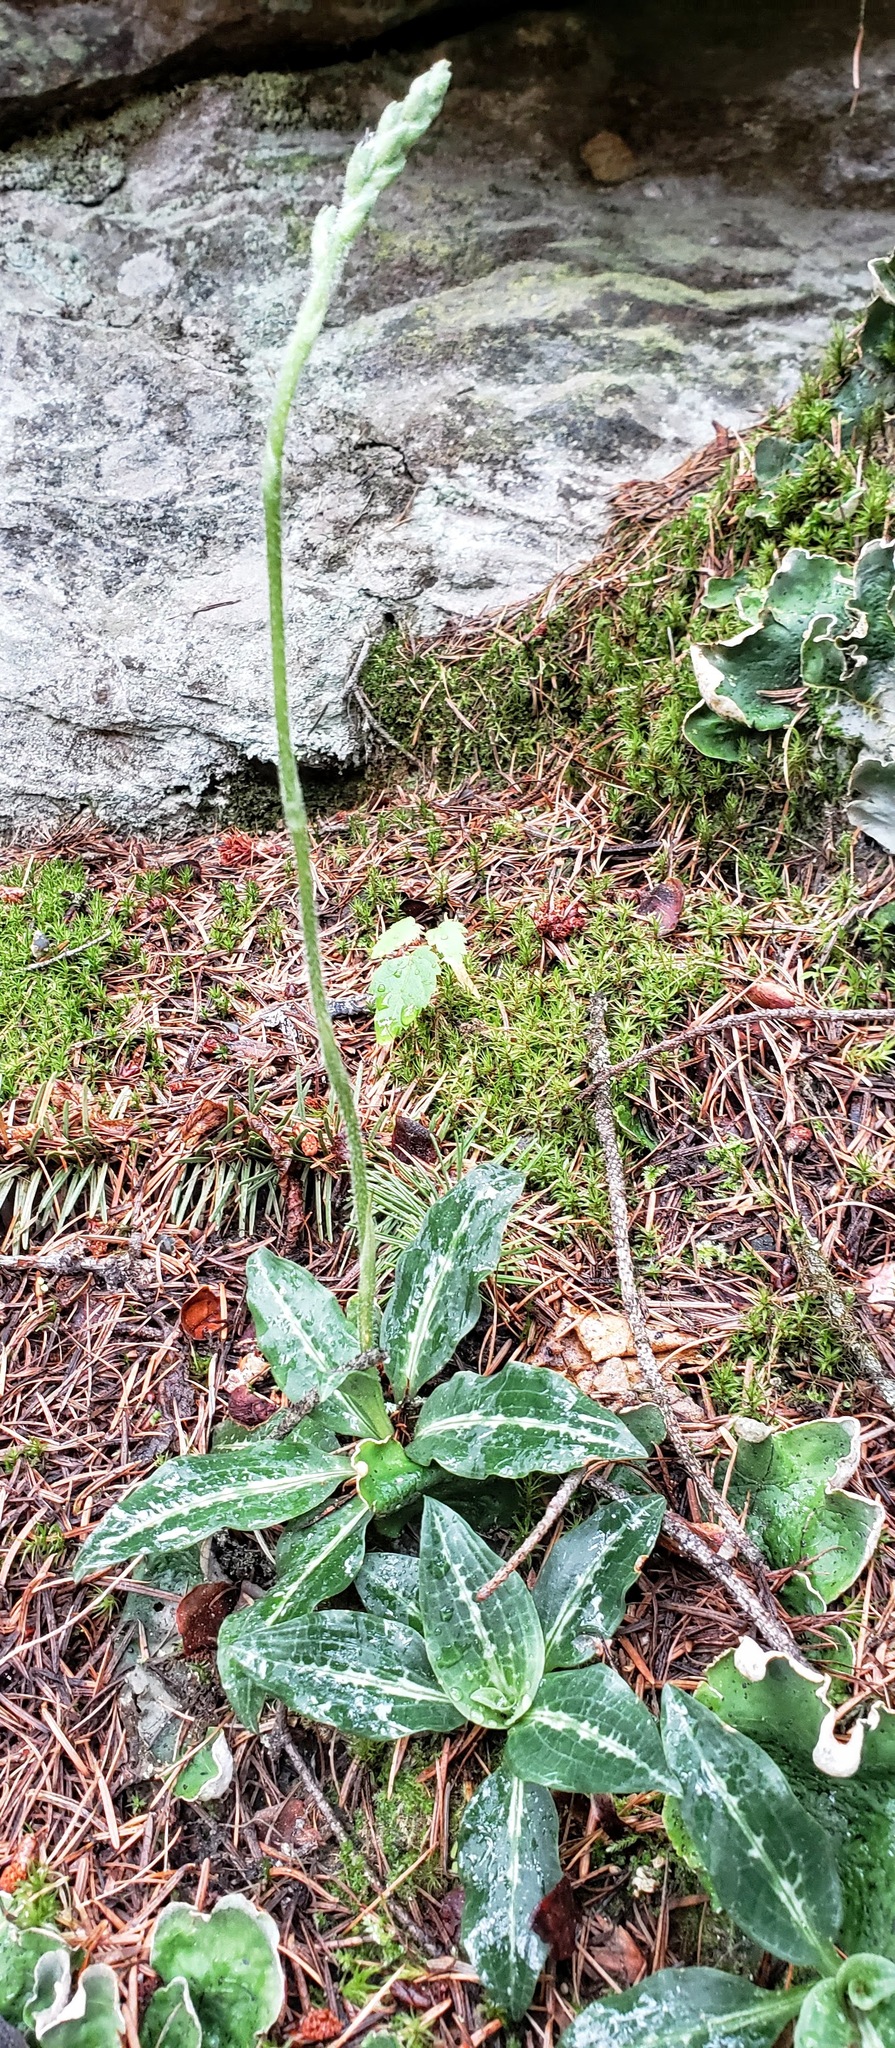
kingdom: Plantae
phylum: Tracheophyta
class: Liliopsida
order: Asparagales
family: Orchidaceae
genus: Goodyera
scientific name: Goodyera oblongifolia
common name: Giant rattlesnake-plantain
